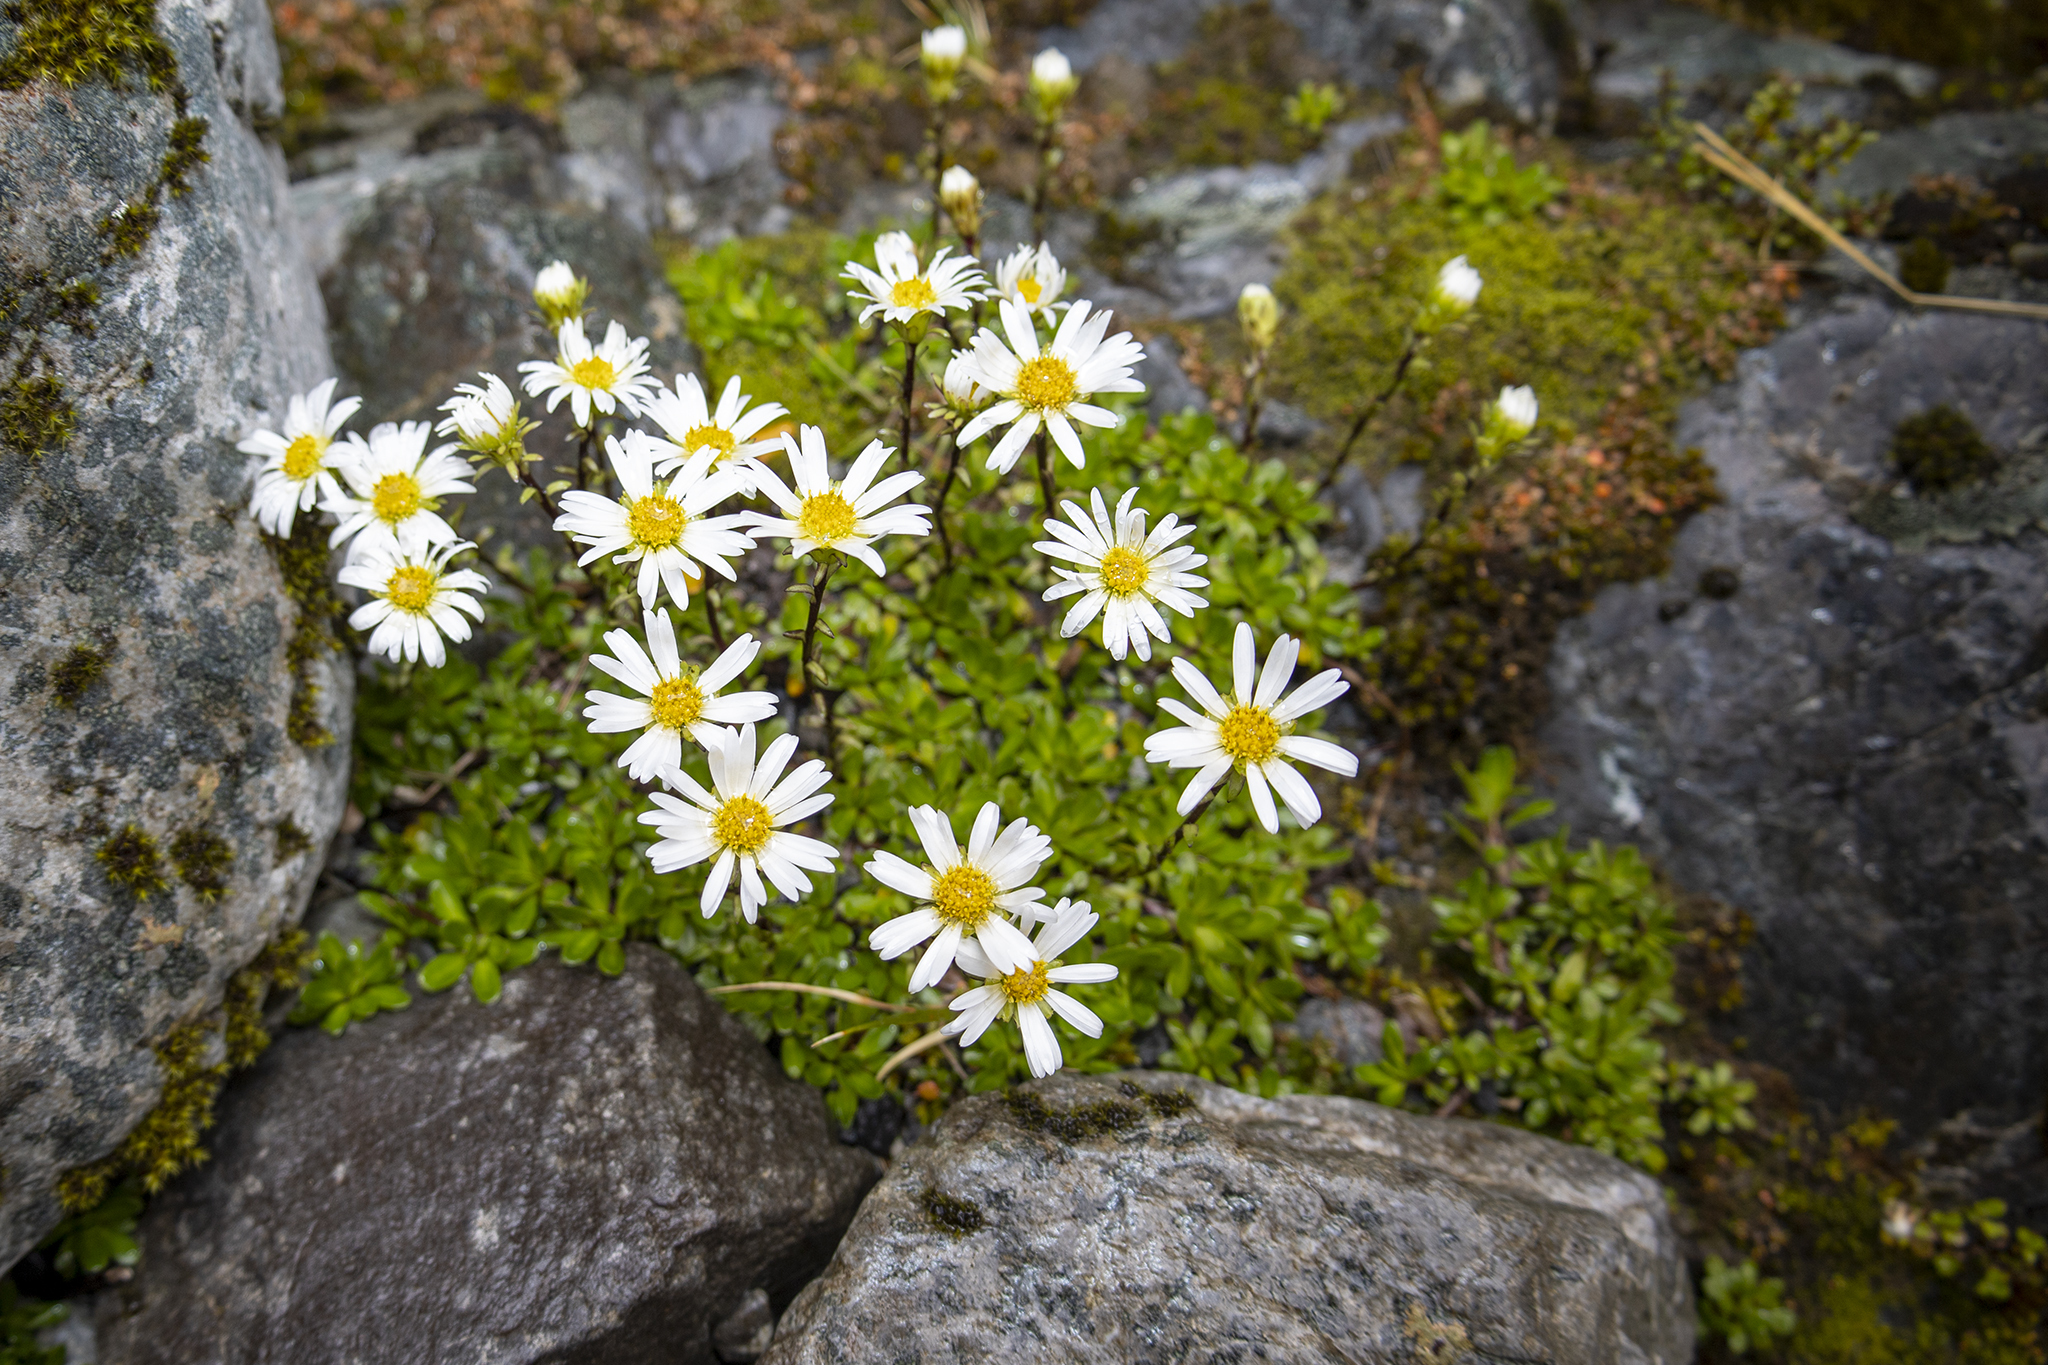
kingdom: Plantae
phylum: Tracheophyta
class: Magnoliopsida
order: Asterales
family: Asteraceae
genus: Celmisia
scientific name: Celmisia bellidioides
